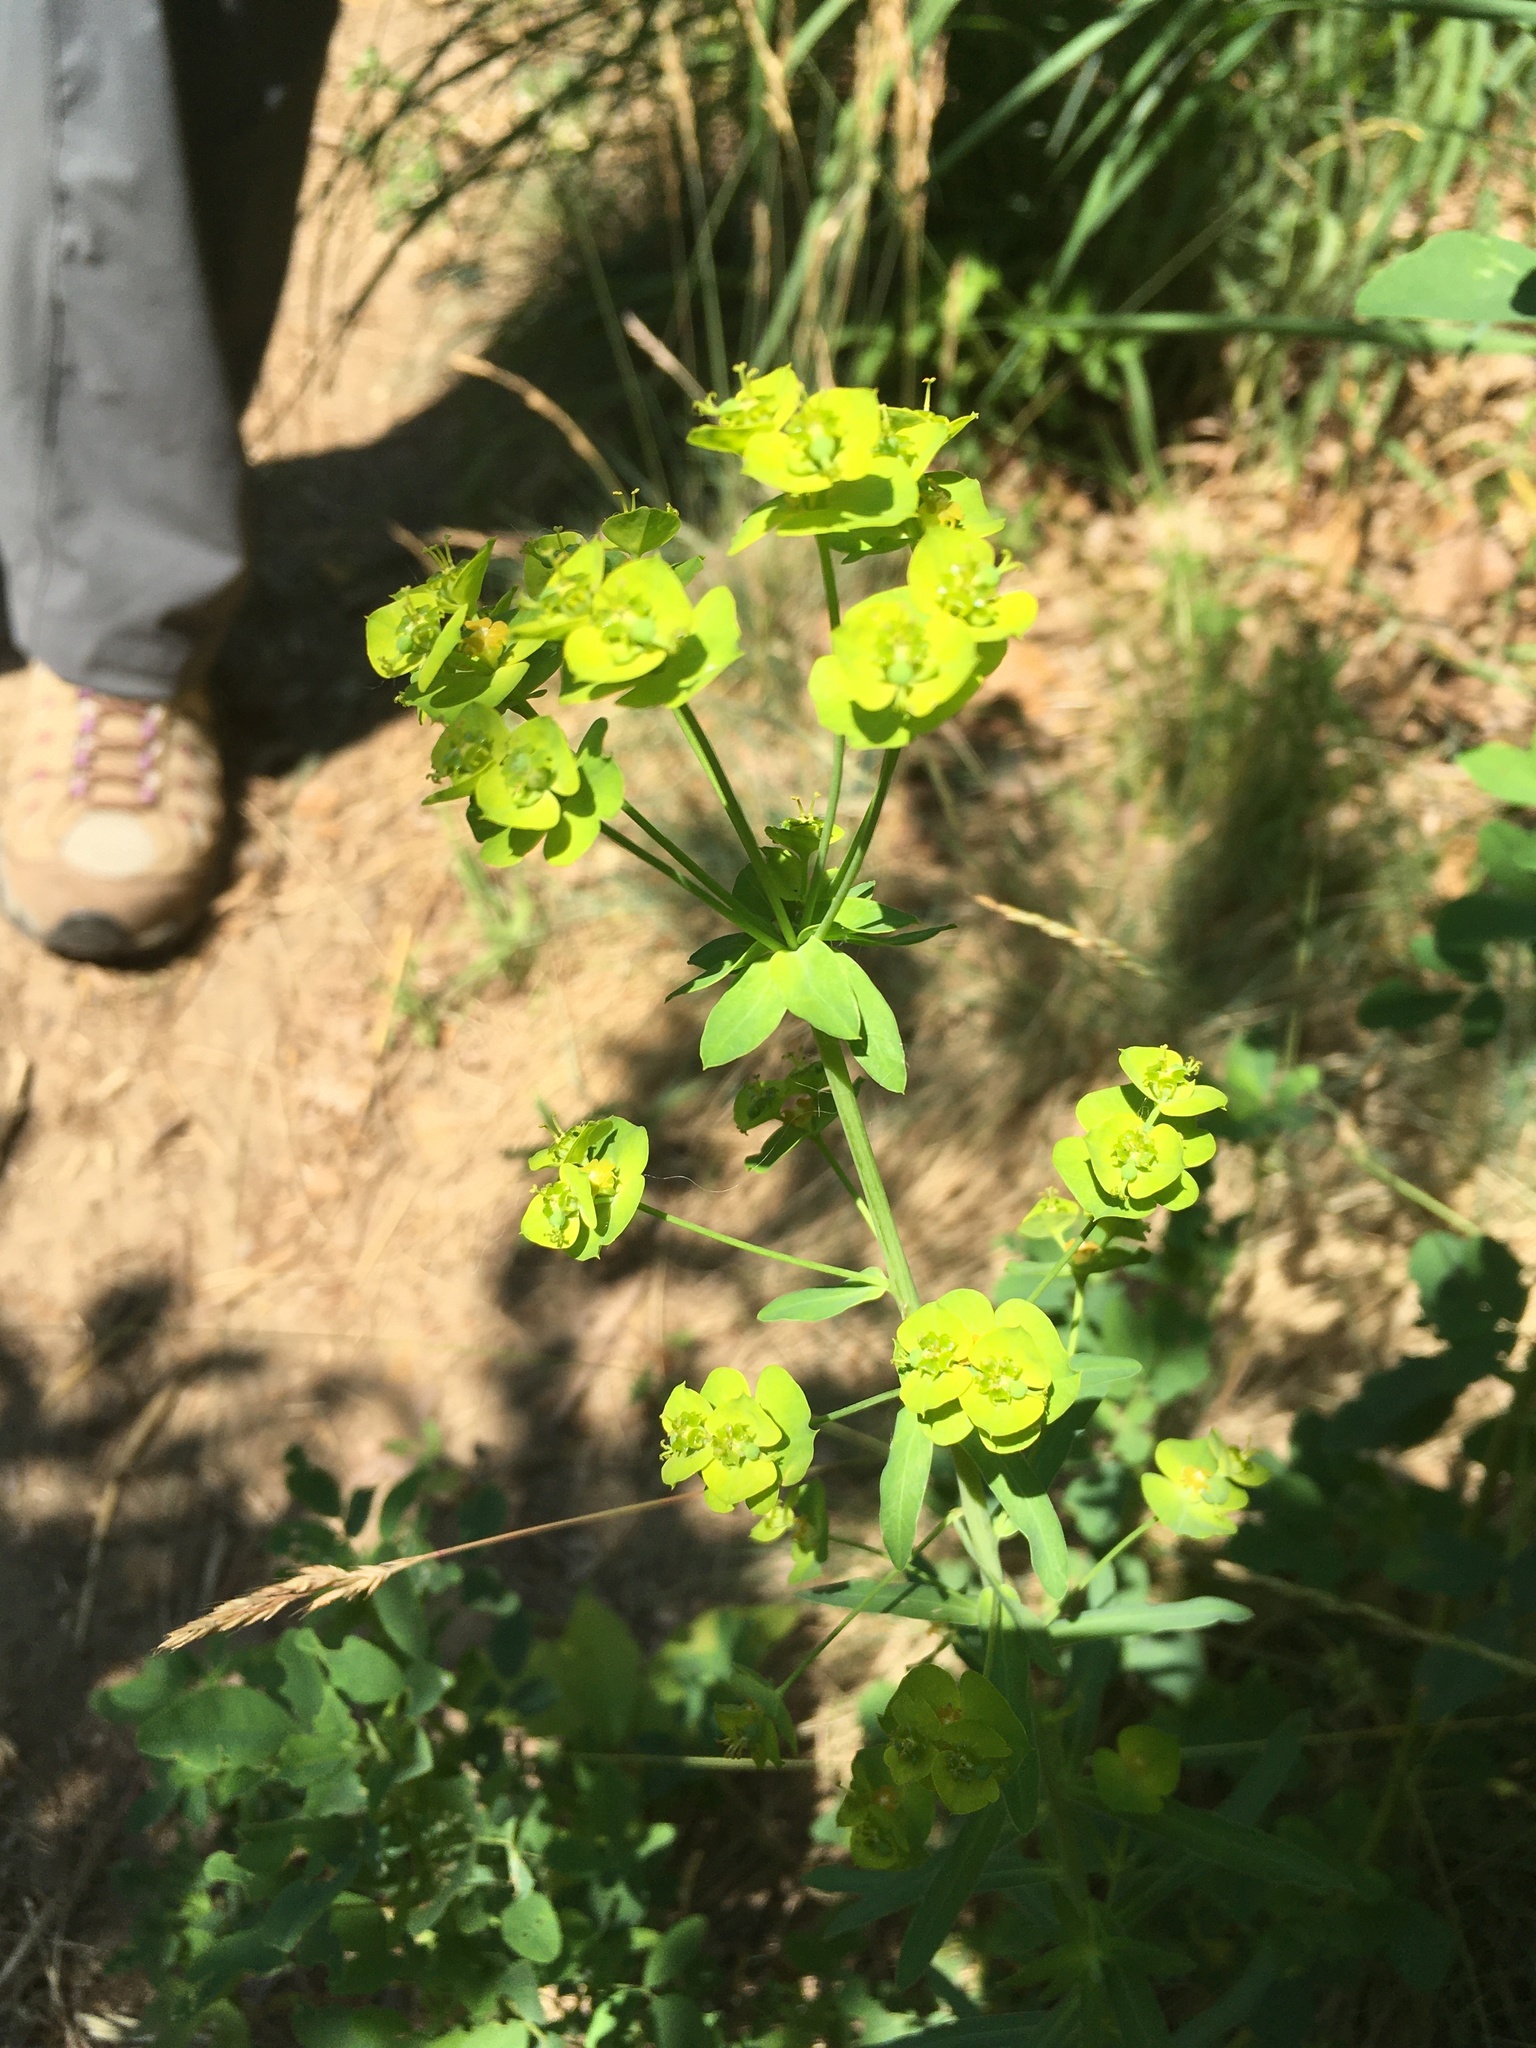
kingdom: Plantae
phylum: Tracheophyta
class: Magnoliopsida
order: Malpighiales
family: Euphorbiaceae
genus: Euphorbia
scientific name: Euphorbia virgata
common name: Leafy spurge
